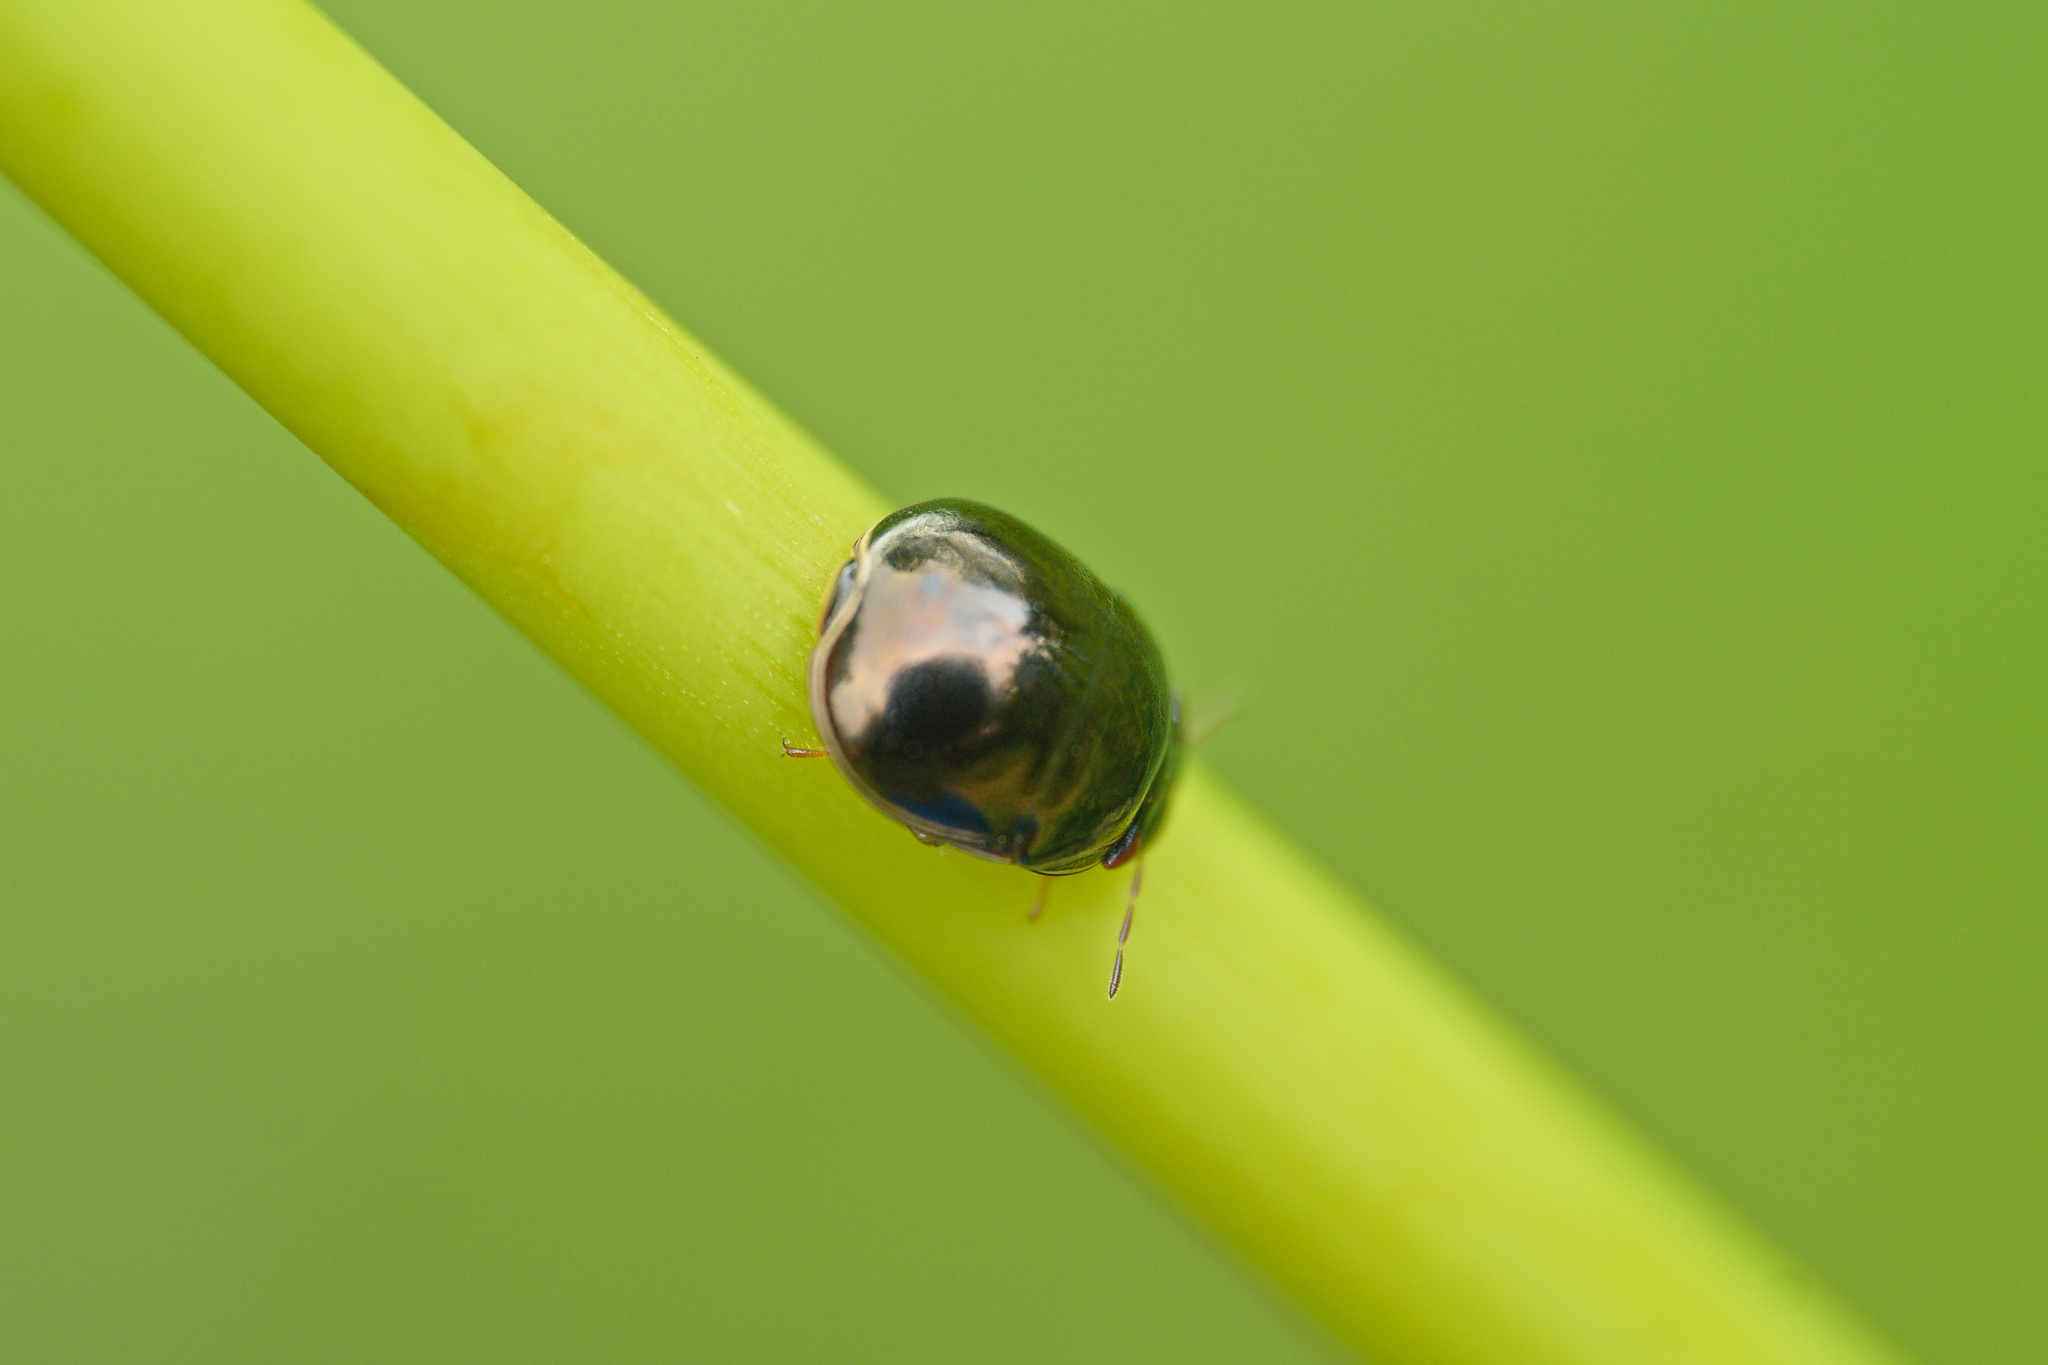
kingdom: Animalia
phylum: Arthropoda
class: Insecta
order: Hemiptera
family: Plataspidae
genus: Brachyplatys
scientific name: Brachyplatys subaeneus
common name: Black bean bug
